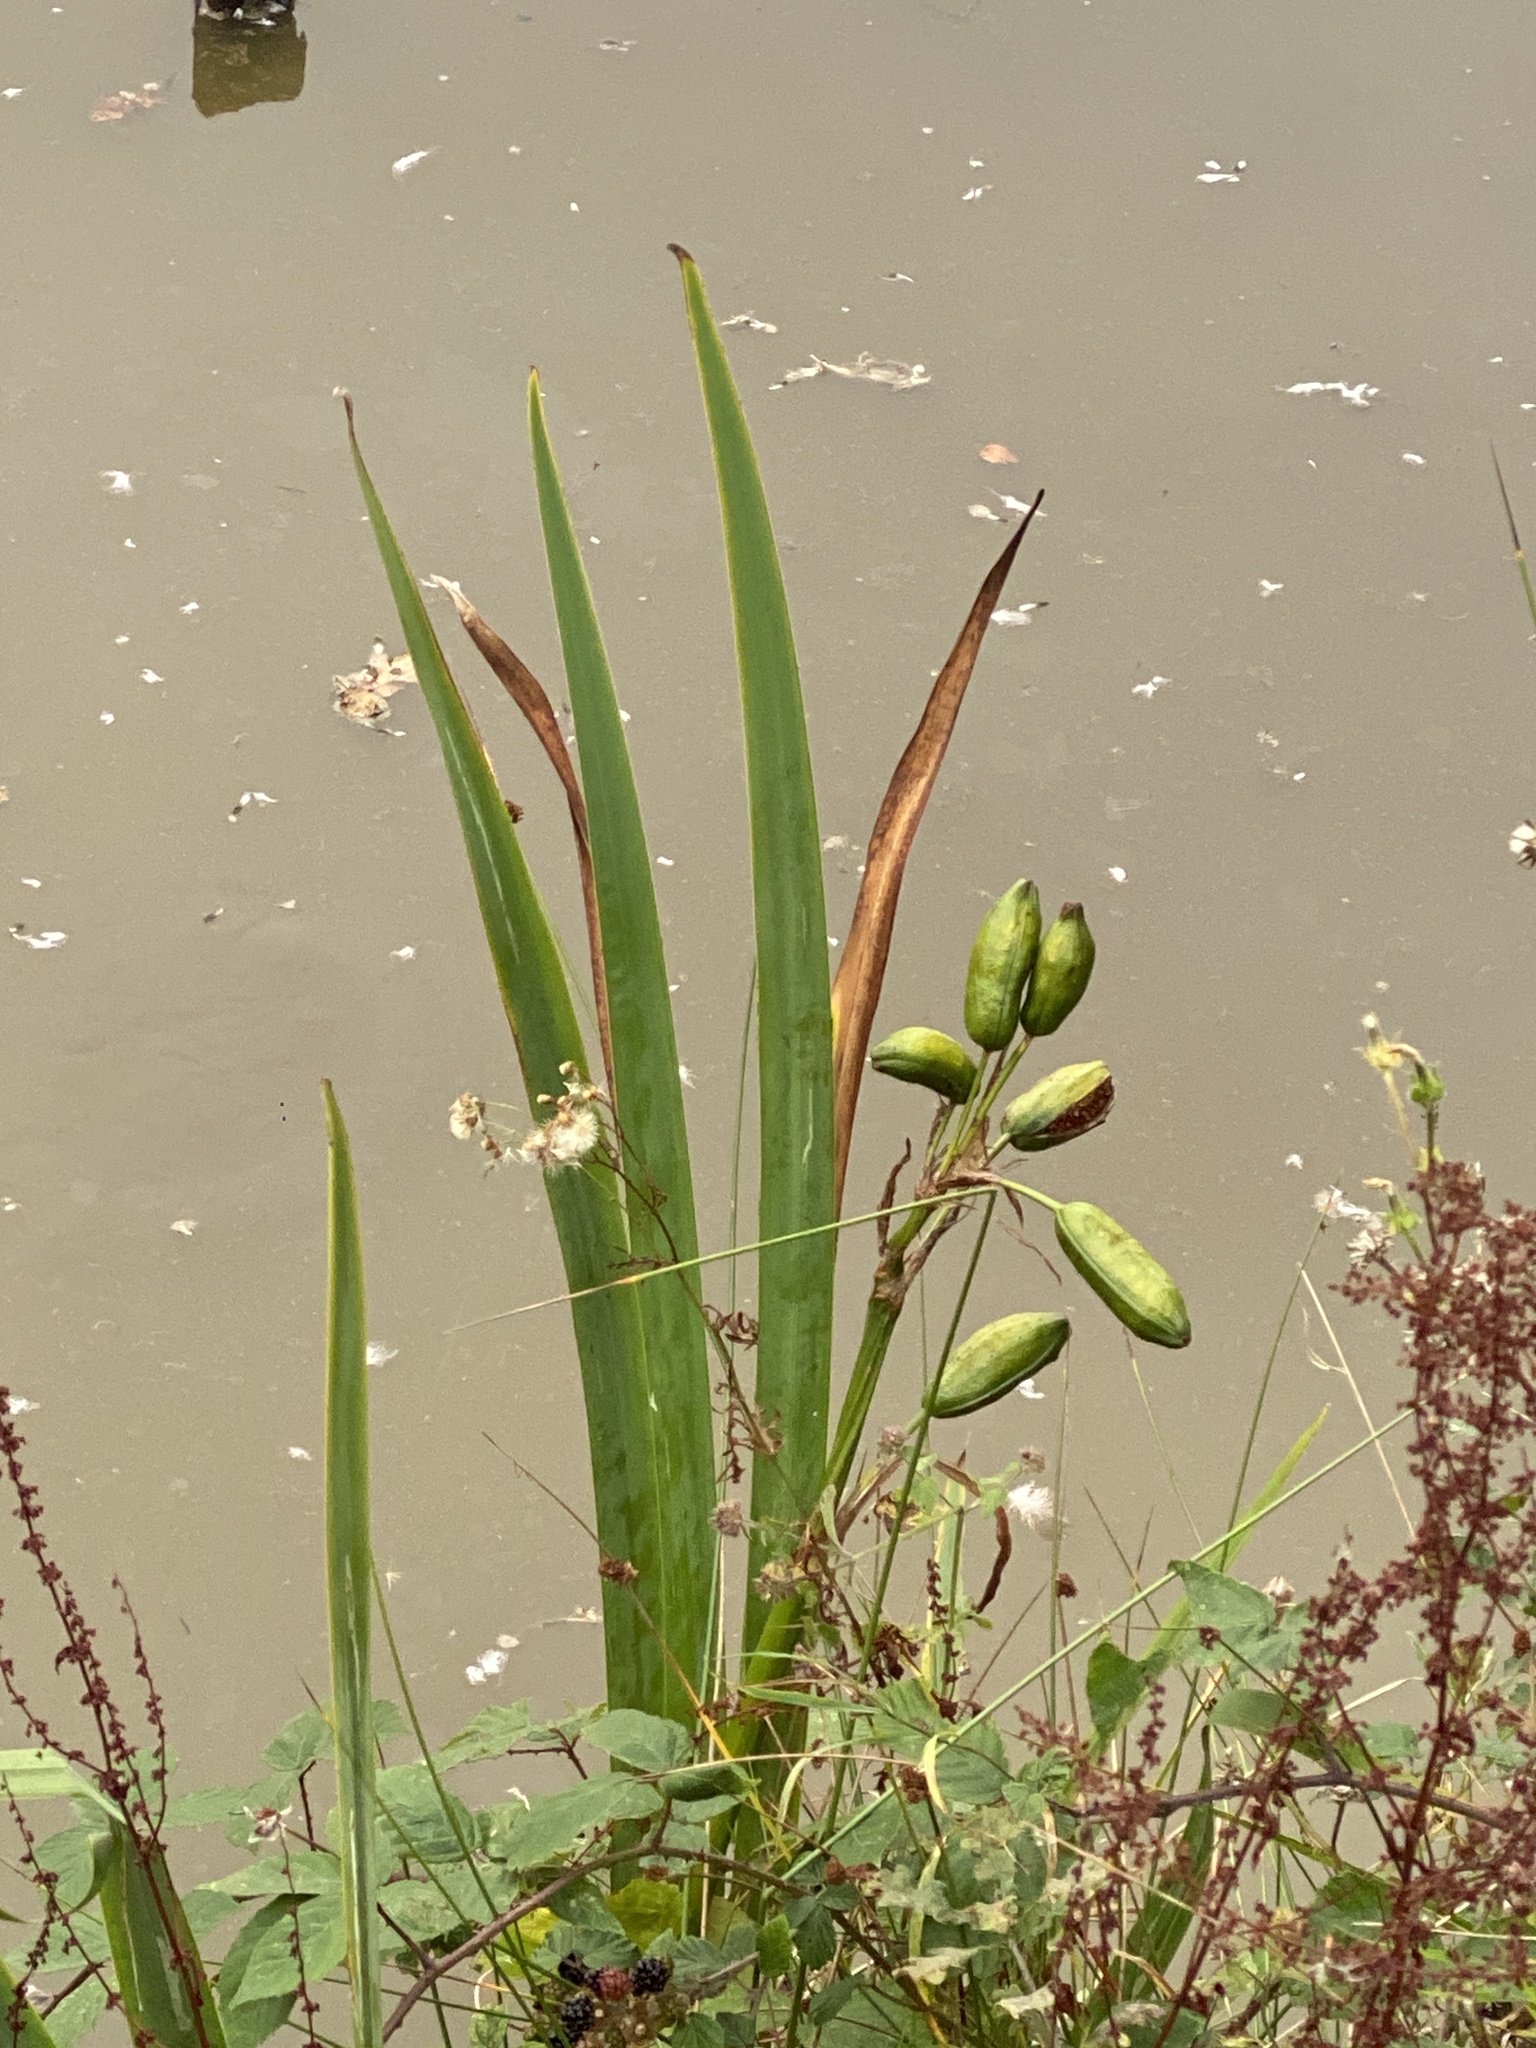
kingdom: Plantae
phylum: Tracheophyta
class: Liliopsida
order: Asparagales
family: Iridaceae
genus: Iris
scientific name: Iris pseudacorus
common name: Yellow flag
